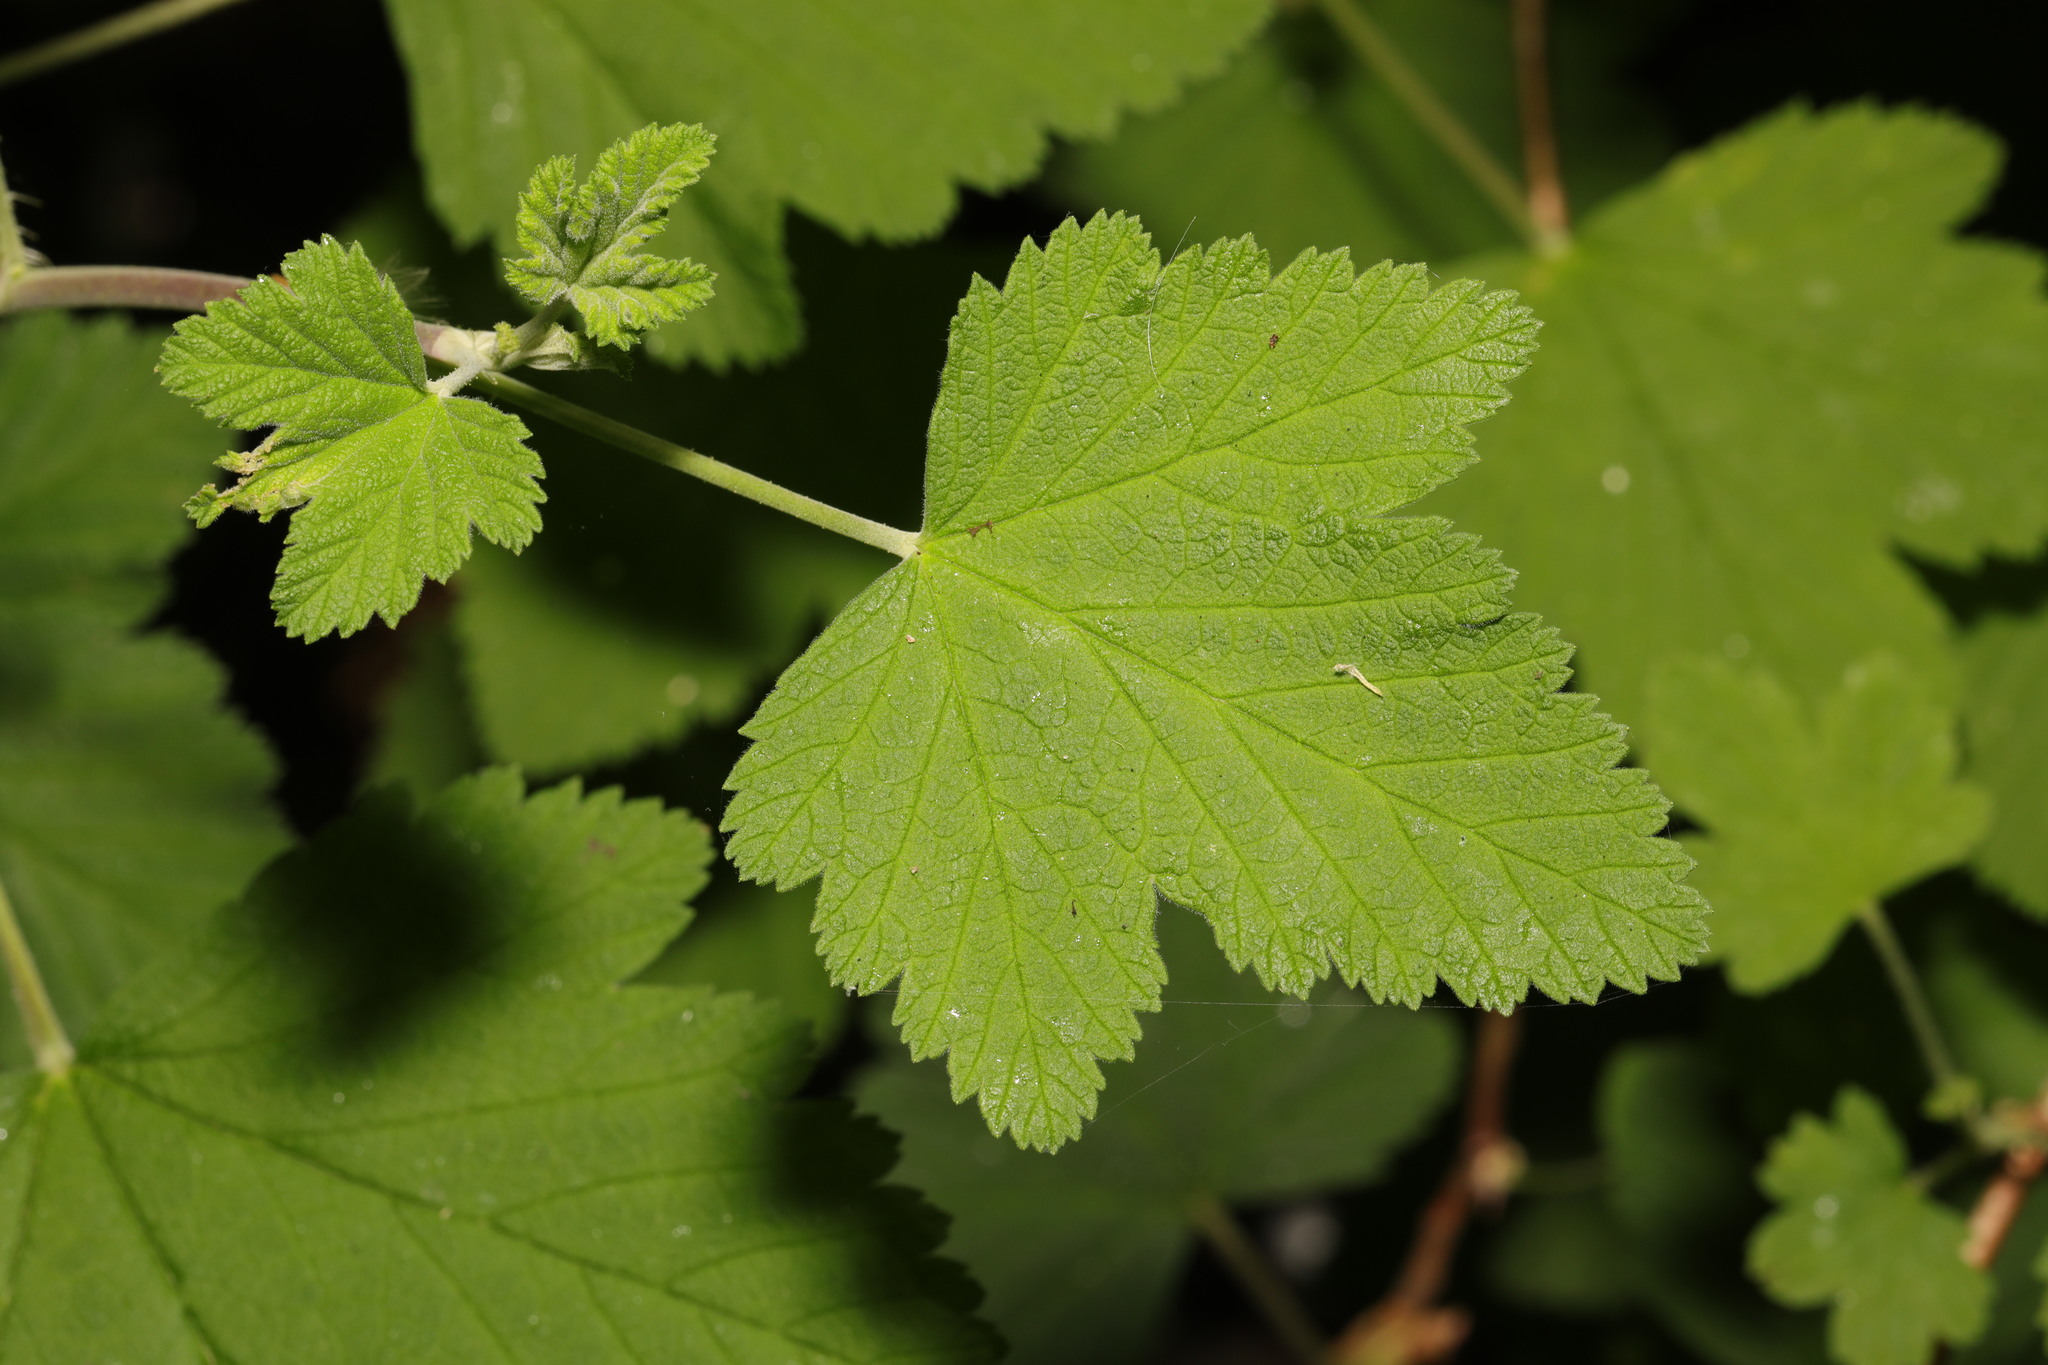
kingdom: Plantae
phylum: Tracheophyta
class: Magnoliopsida
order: Saxifragales
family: Grossulariaceae
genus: Ribes
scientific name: Ribes sanguineum
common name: Flowering currant
